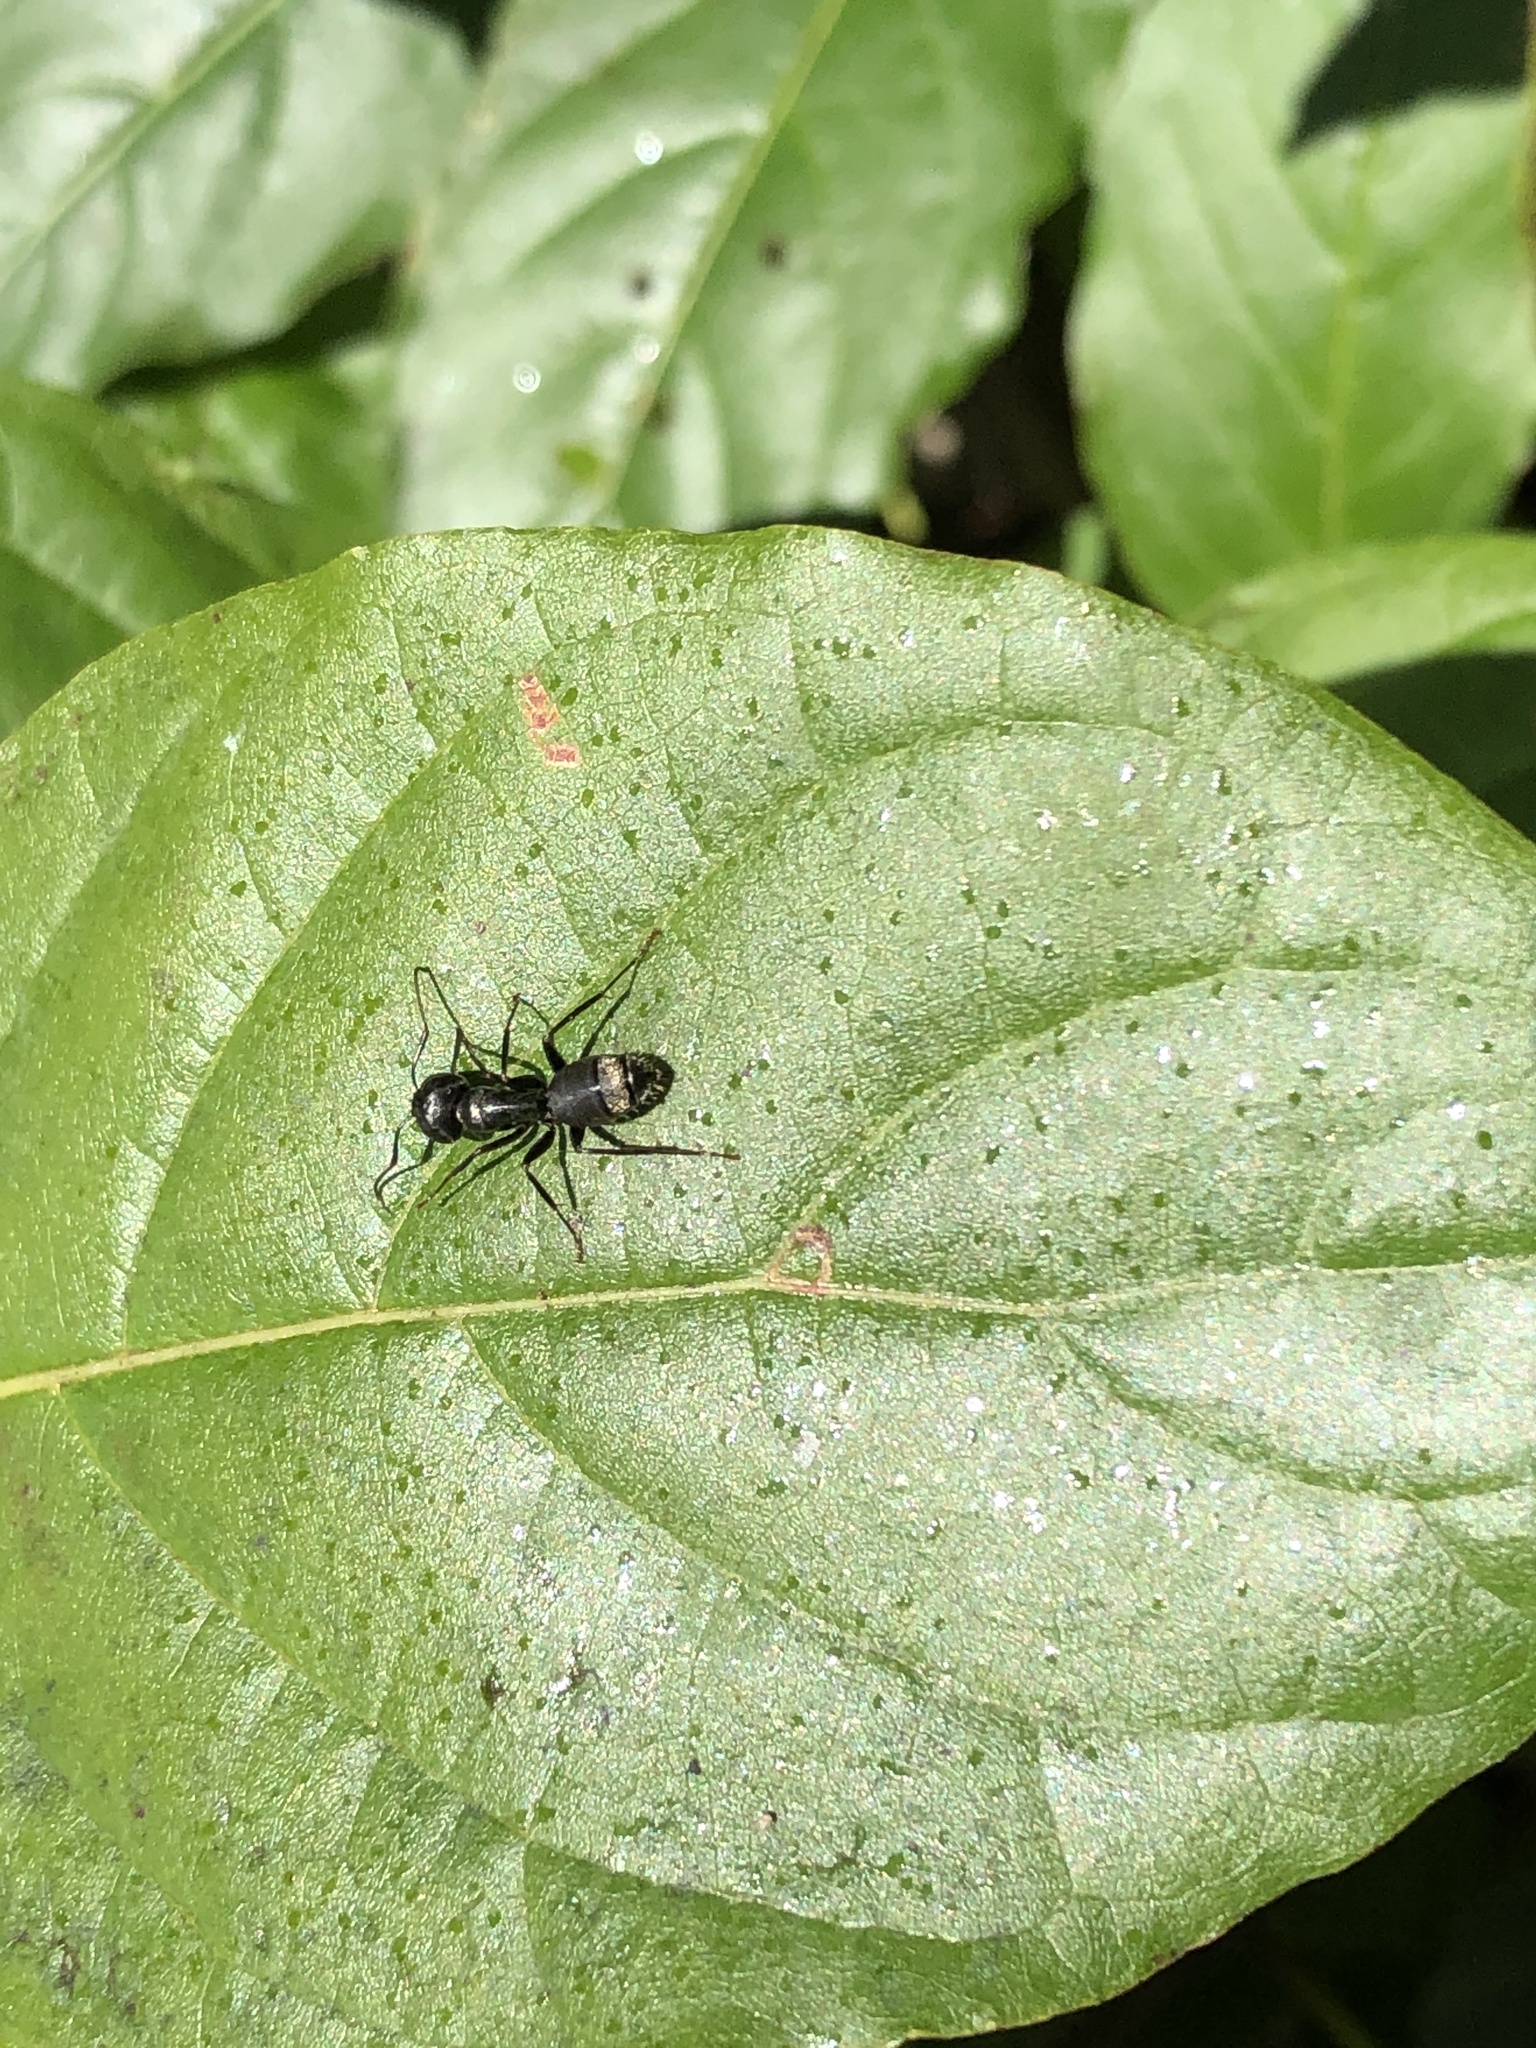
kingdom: Animalia
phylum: Arthropoda
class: Insecta
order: Hymenoptera
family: Formicidae
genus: Camponotus
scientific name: Camponotus pennsylvanicus
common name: Black carpenter ant
